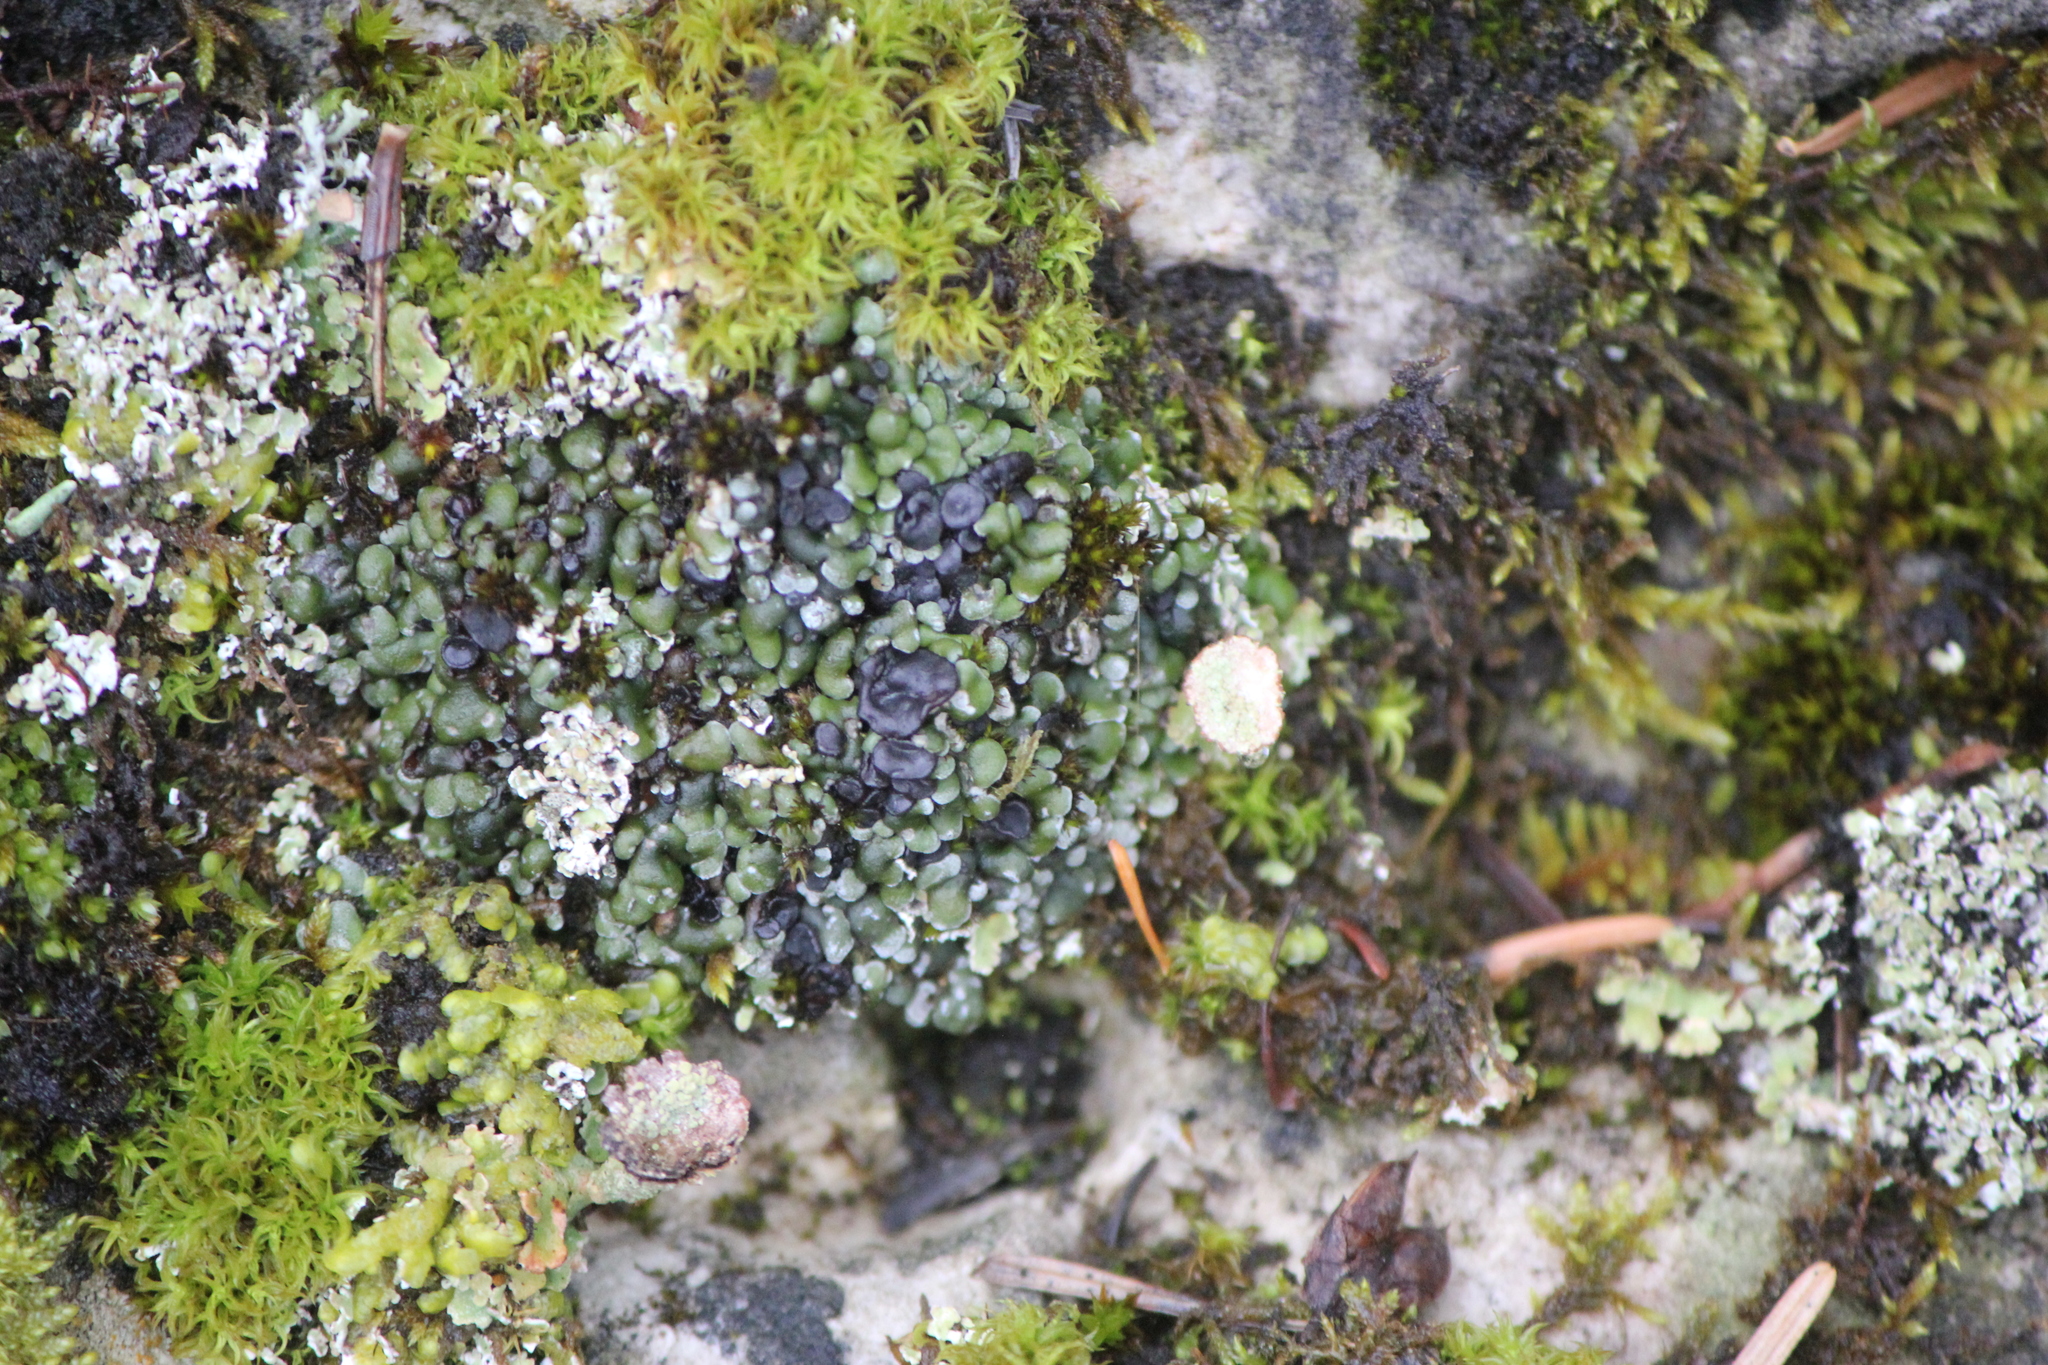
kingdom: Fungi
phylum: Ascomycota
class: Lecanoromycetes
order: Lecanorales
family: Ramalinaceae
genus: Thalloidima
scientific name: Thalloidima sedifolium
